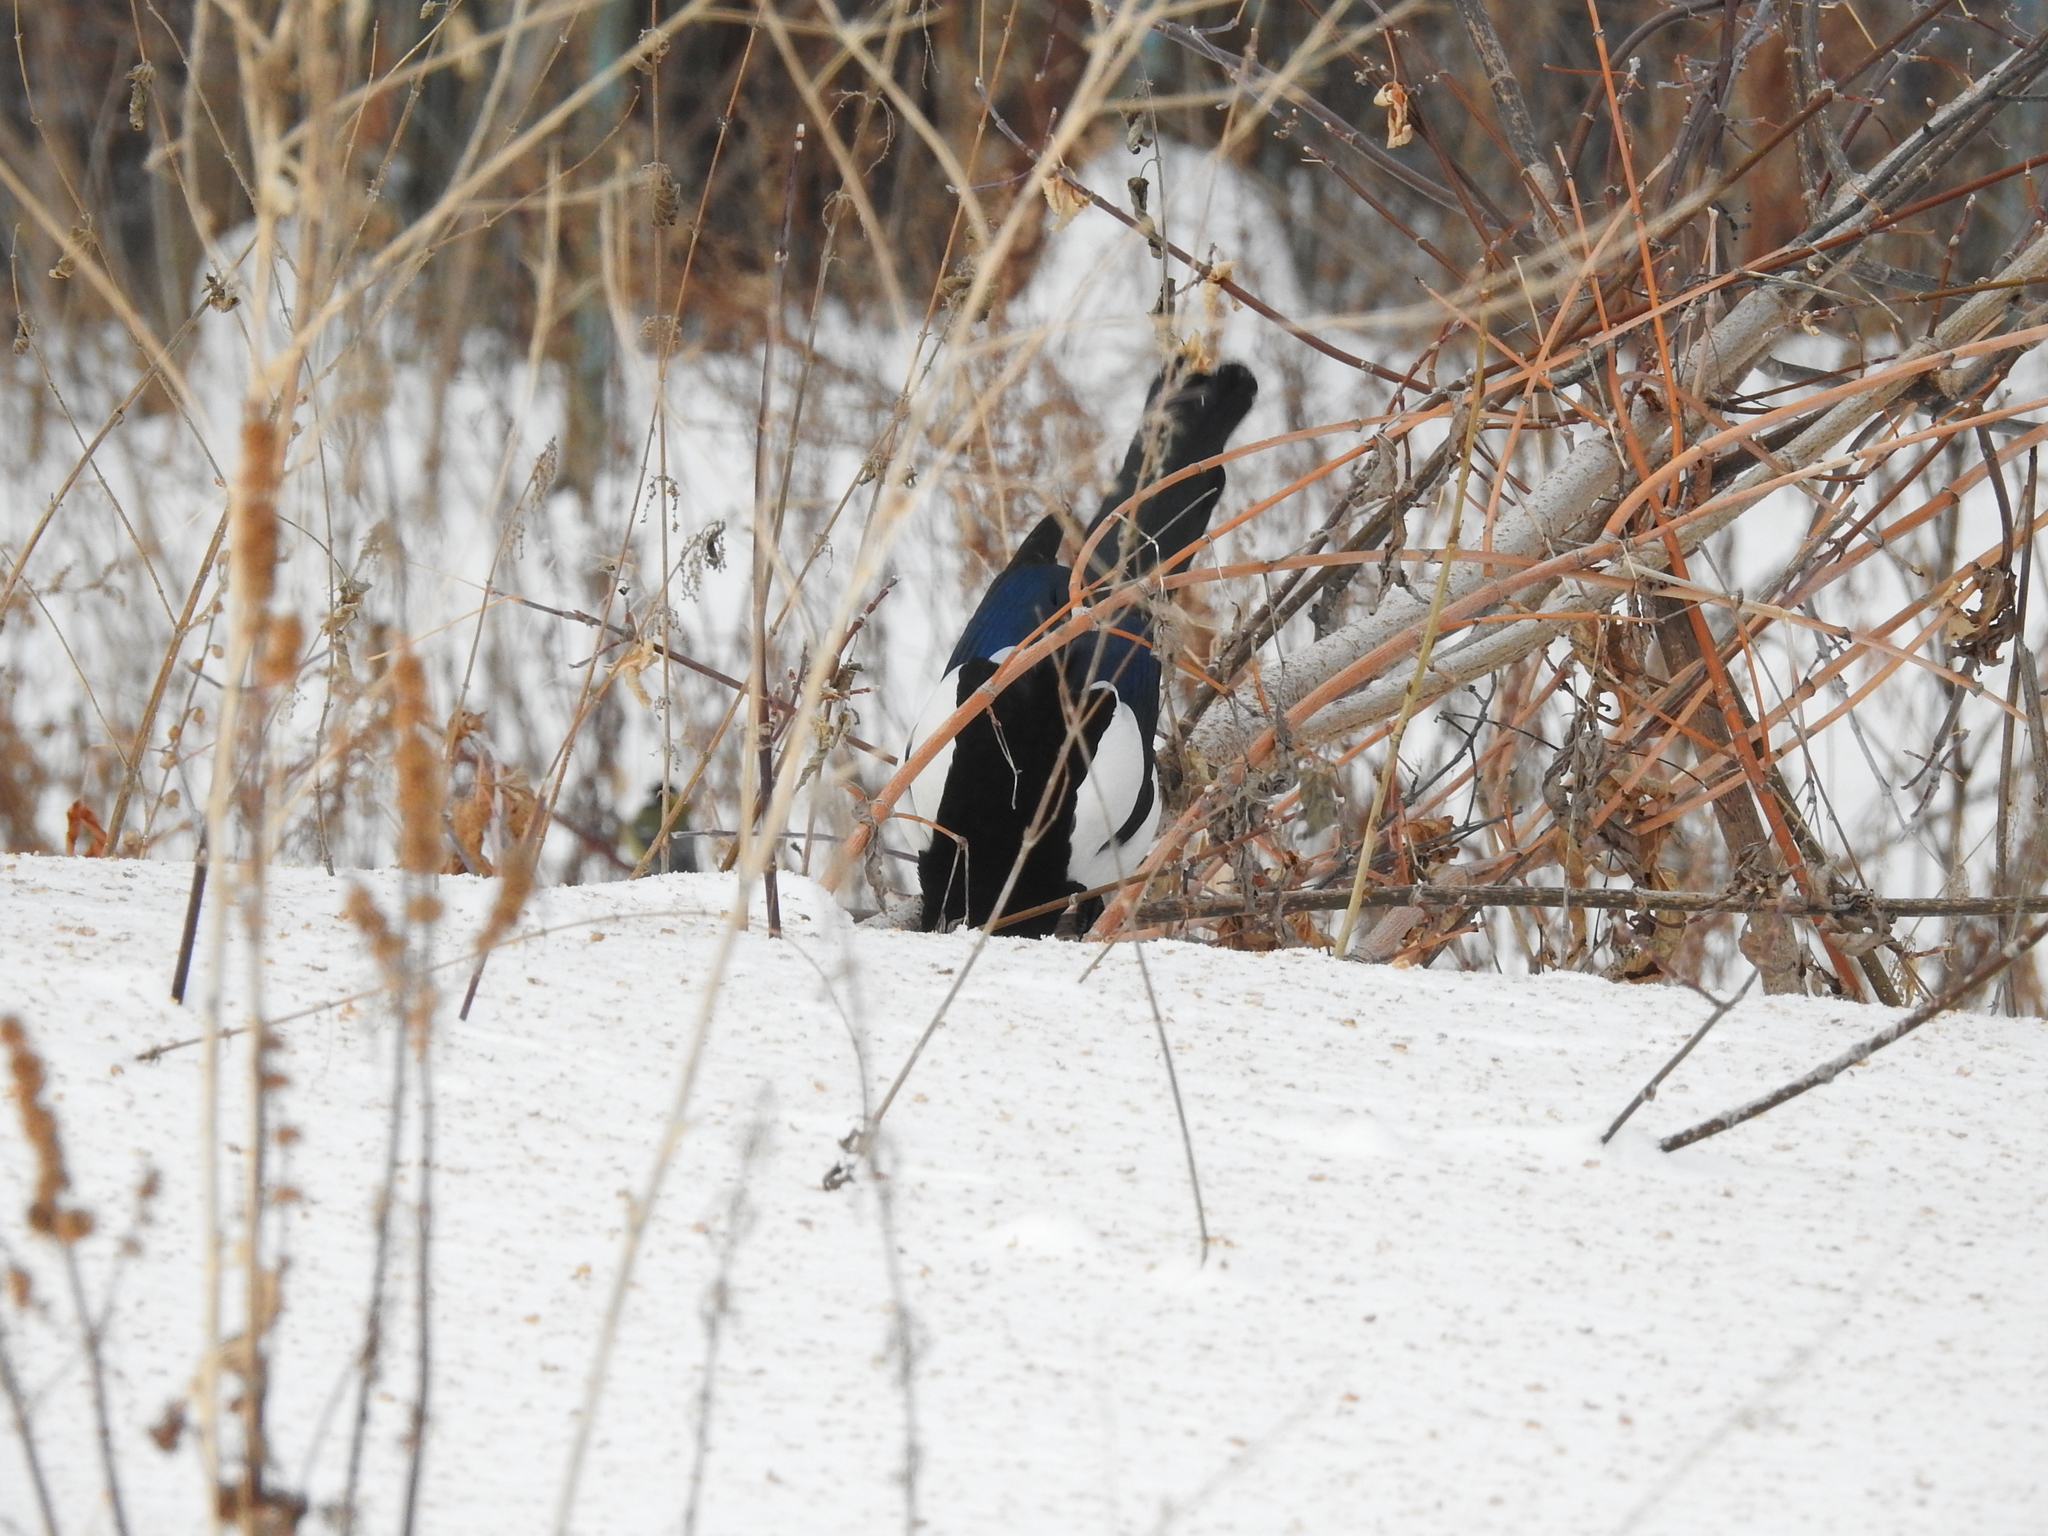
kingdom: Animalia
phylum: Chordata
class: Aves
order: Passeriformes
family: Corvidae
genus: Pica
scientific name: Pica pica
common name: Eurasian magpie
